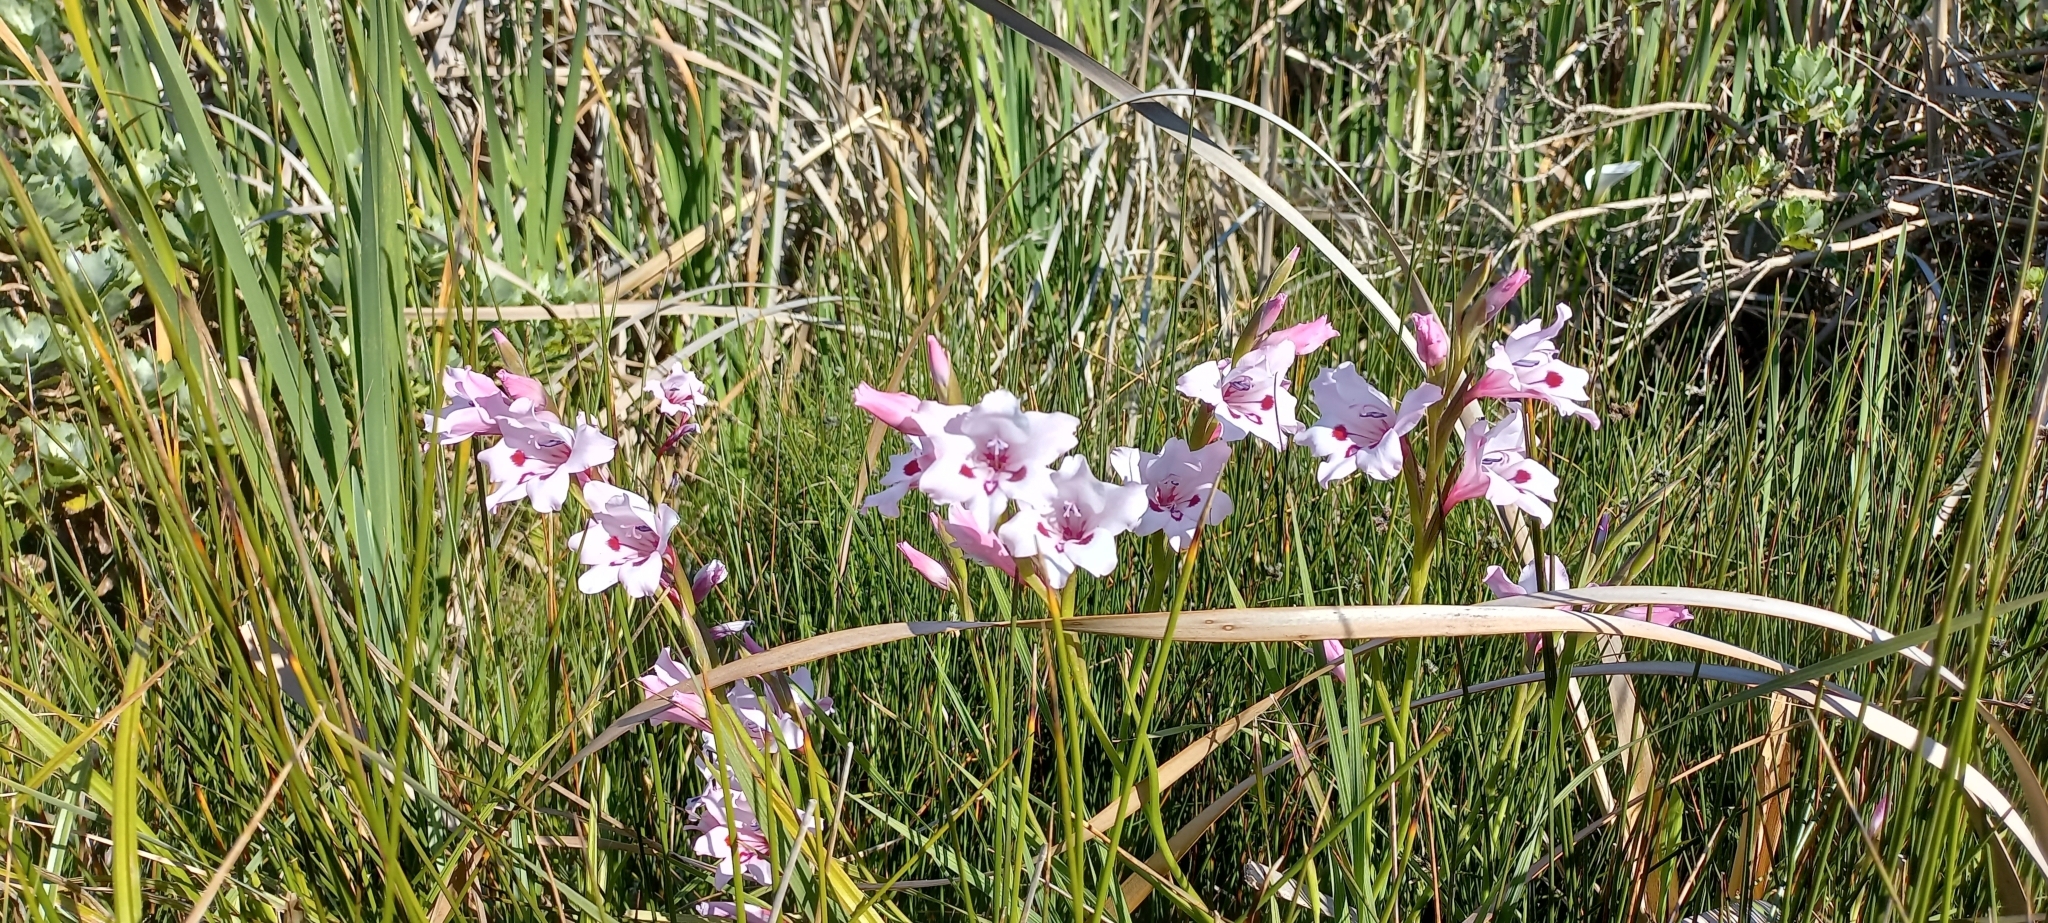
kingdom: Plantae
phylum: Tracheophyta
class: Liliopsida
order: Asparagales
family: Iridaceae
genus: Gladiolus
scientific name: Gladiolus carneus
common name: Painted-lady
